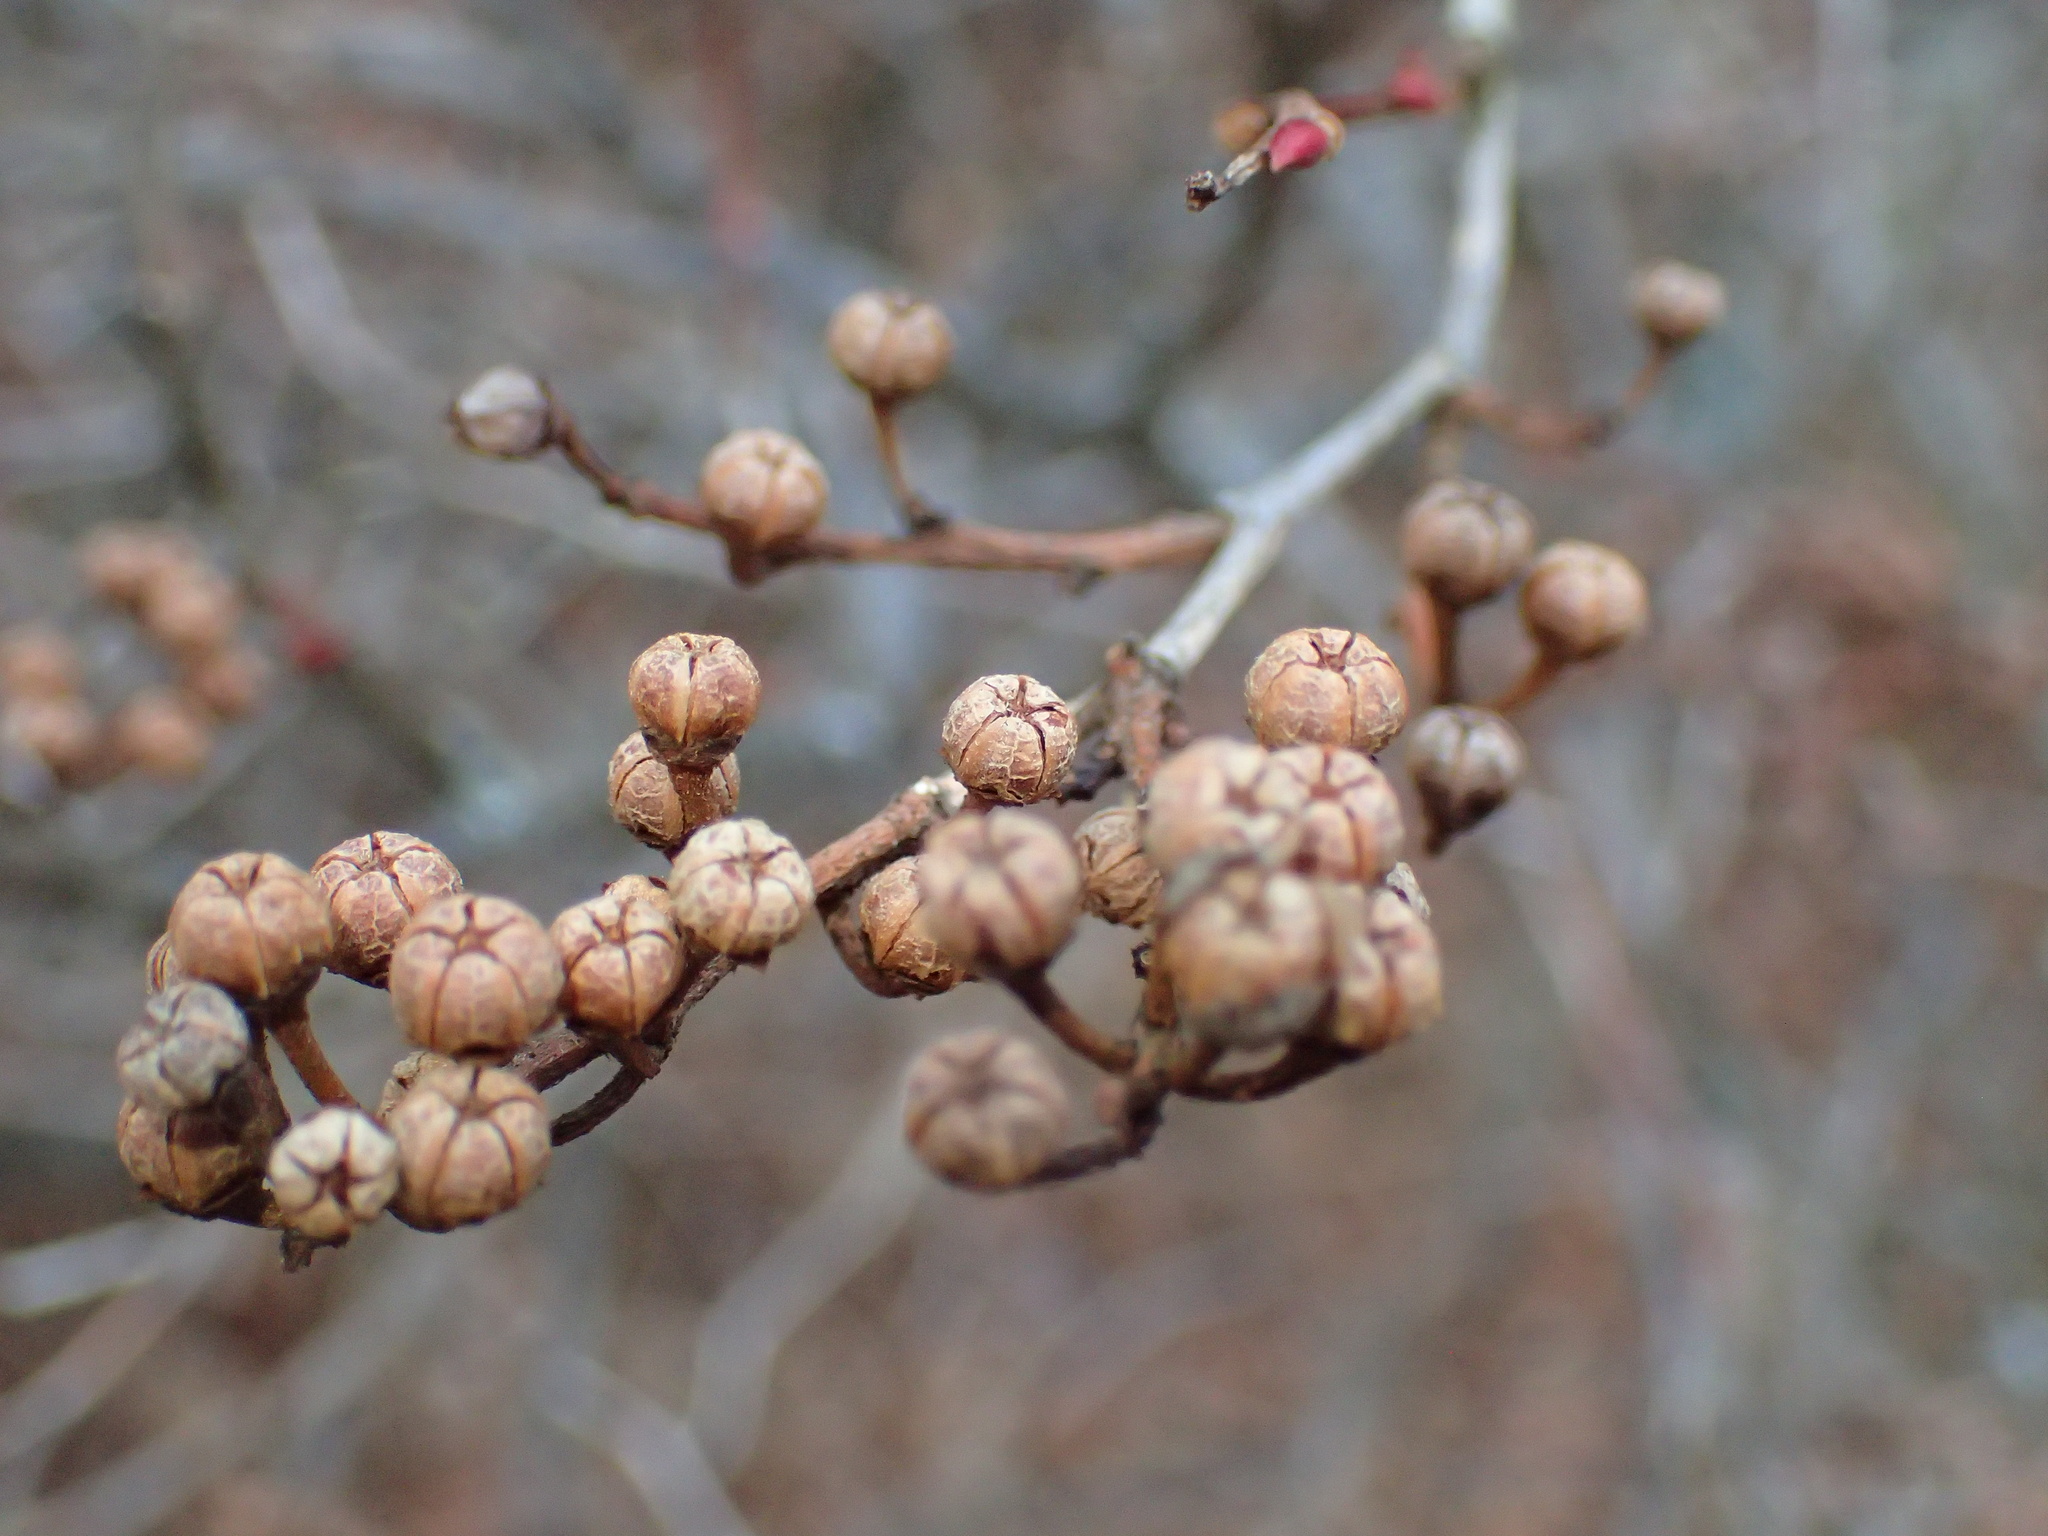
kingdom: Plantae
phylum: Tracheophyta
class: Magnoliopsida
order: Ericales
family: Ericaceae
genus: Lyonia
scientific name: Lyonia ligustrina
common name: Maleberry
